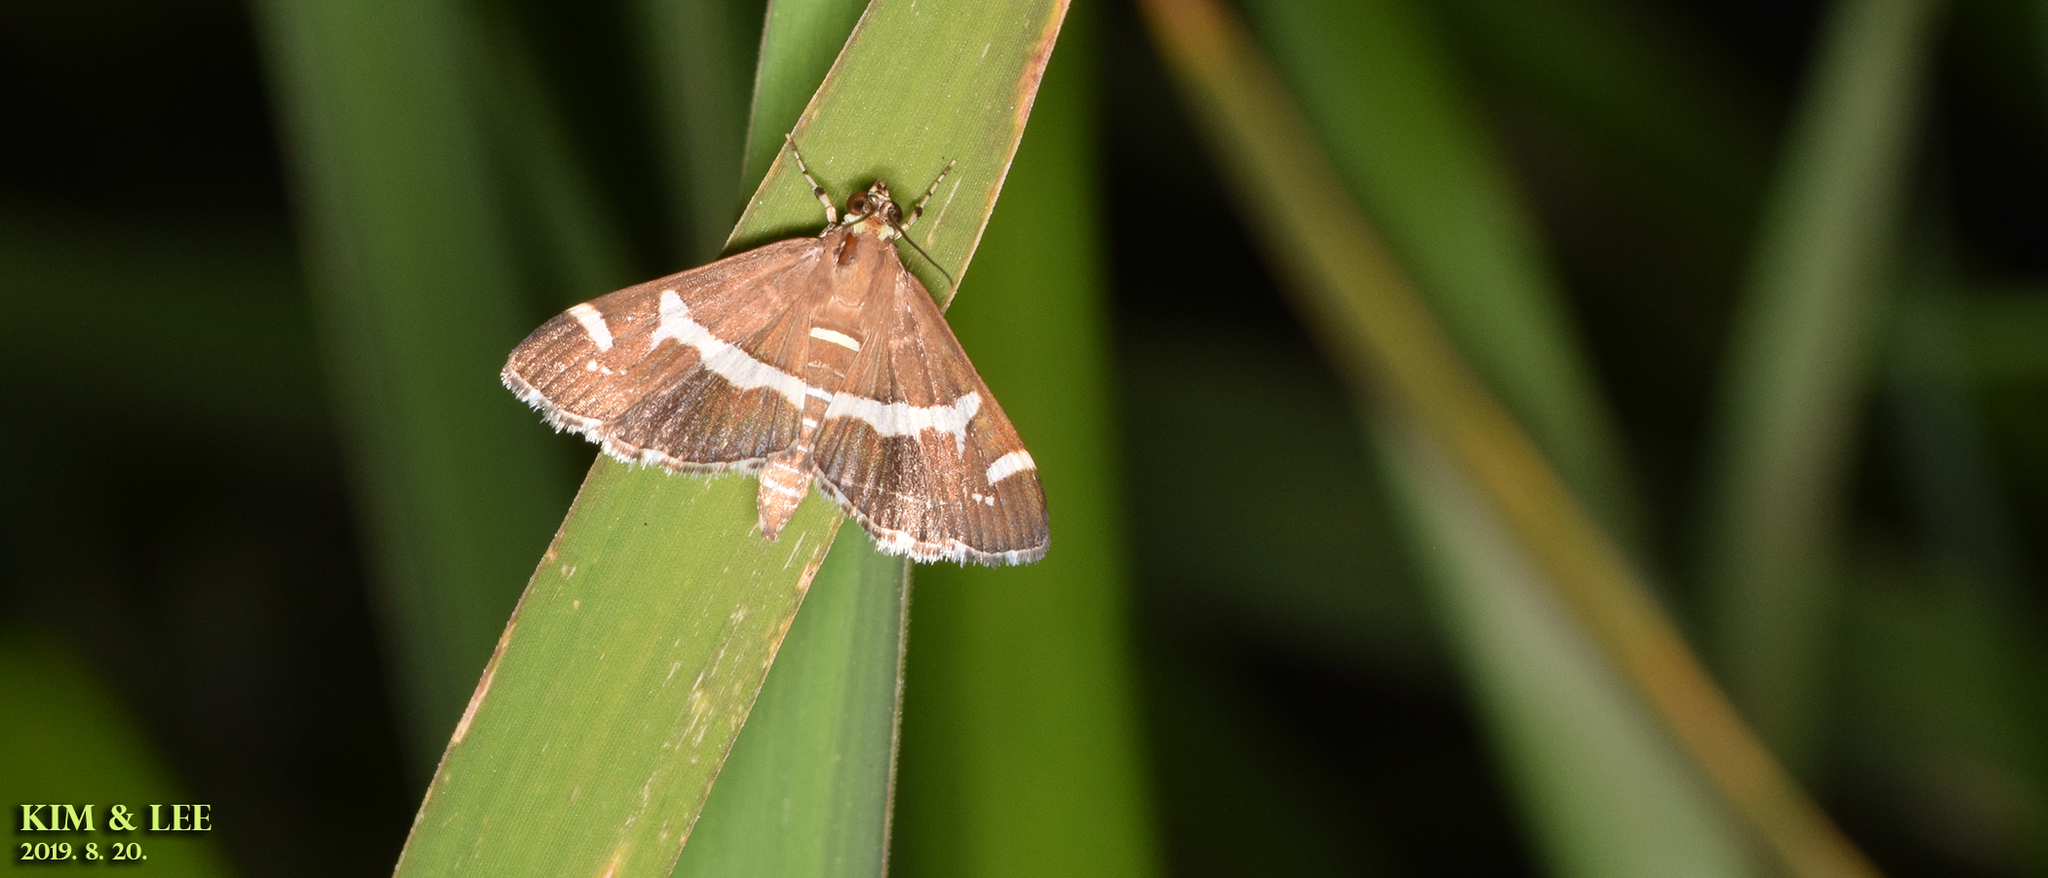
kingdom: Animalia
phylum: Arthropoda
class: Insecta
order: Lepidoptera
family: Crambidae
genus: Spoladea
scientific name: Spoladea recurvalis
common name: Beet webworm moth
